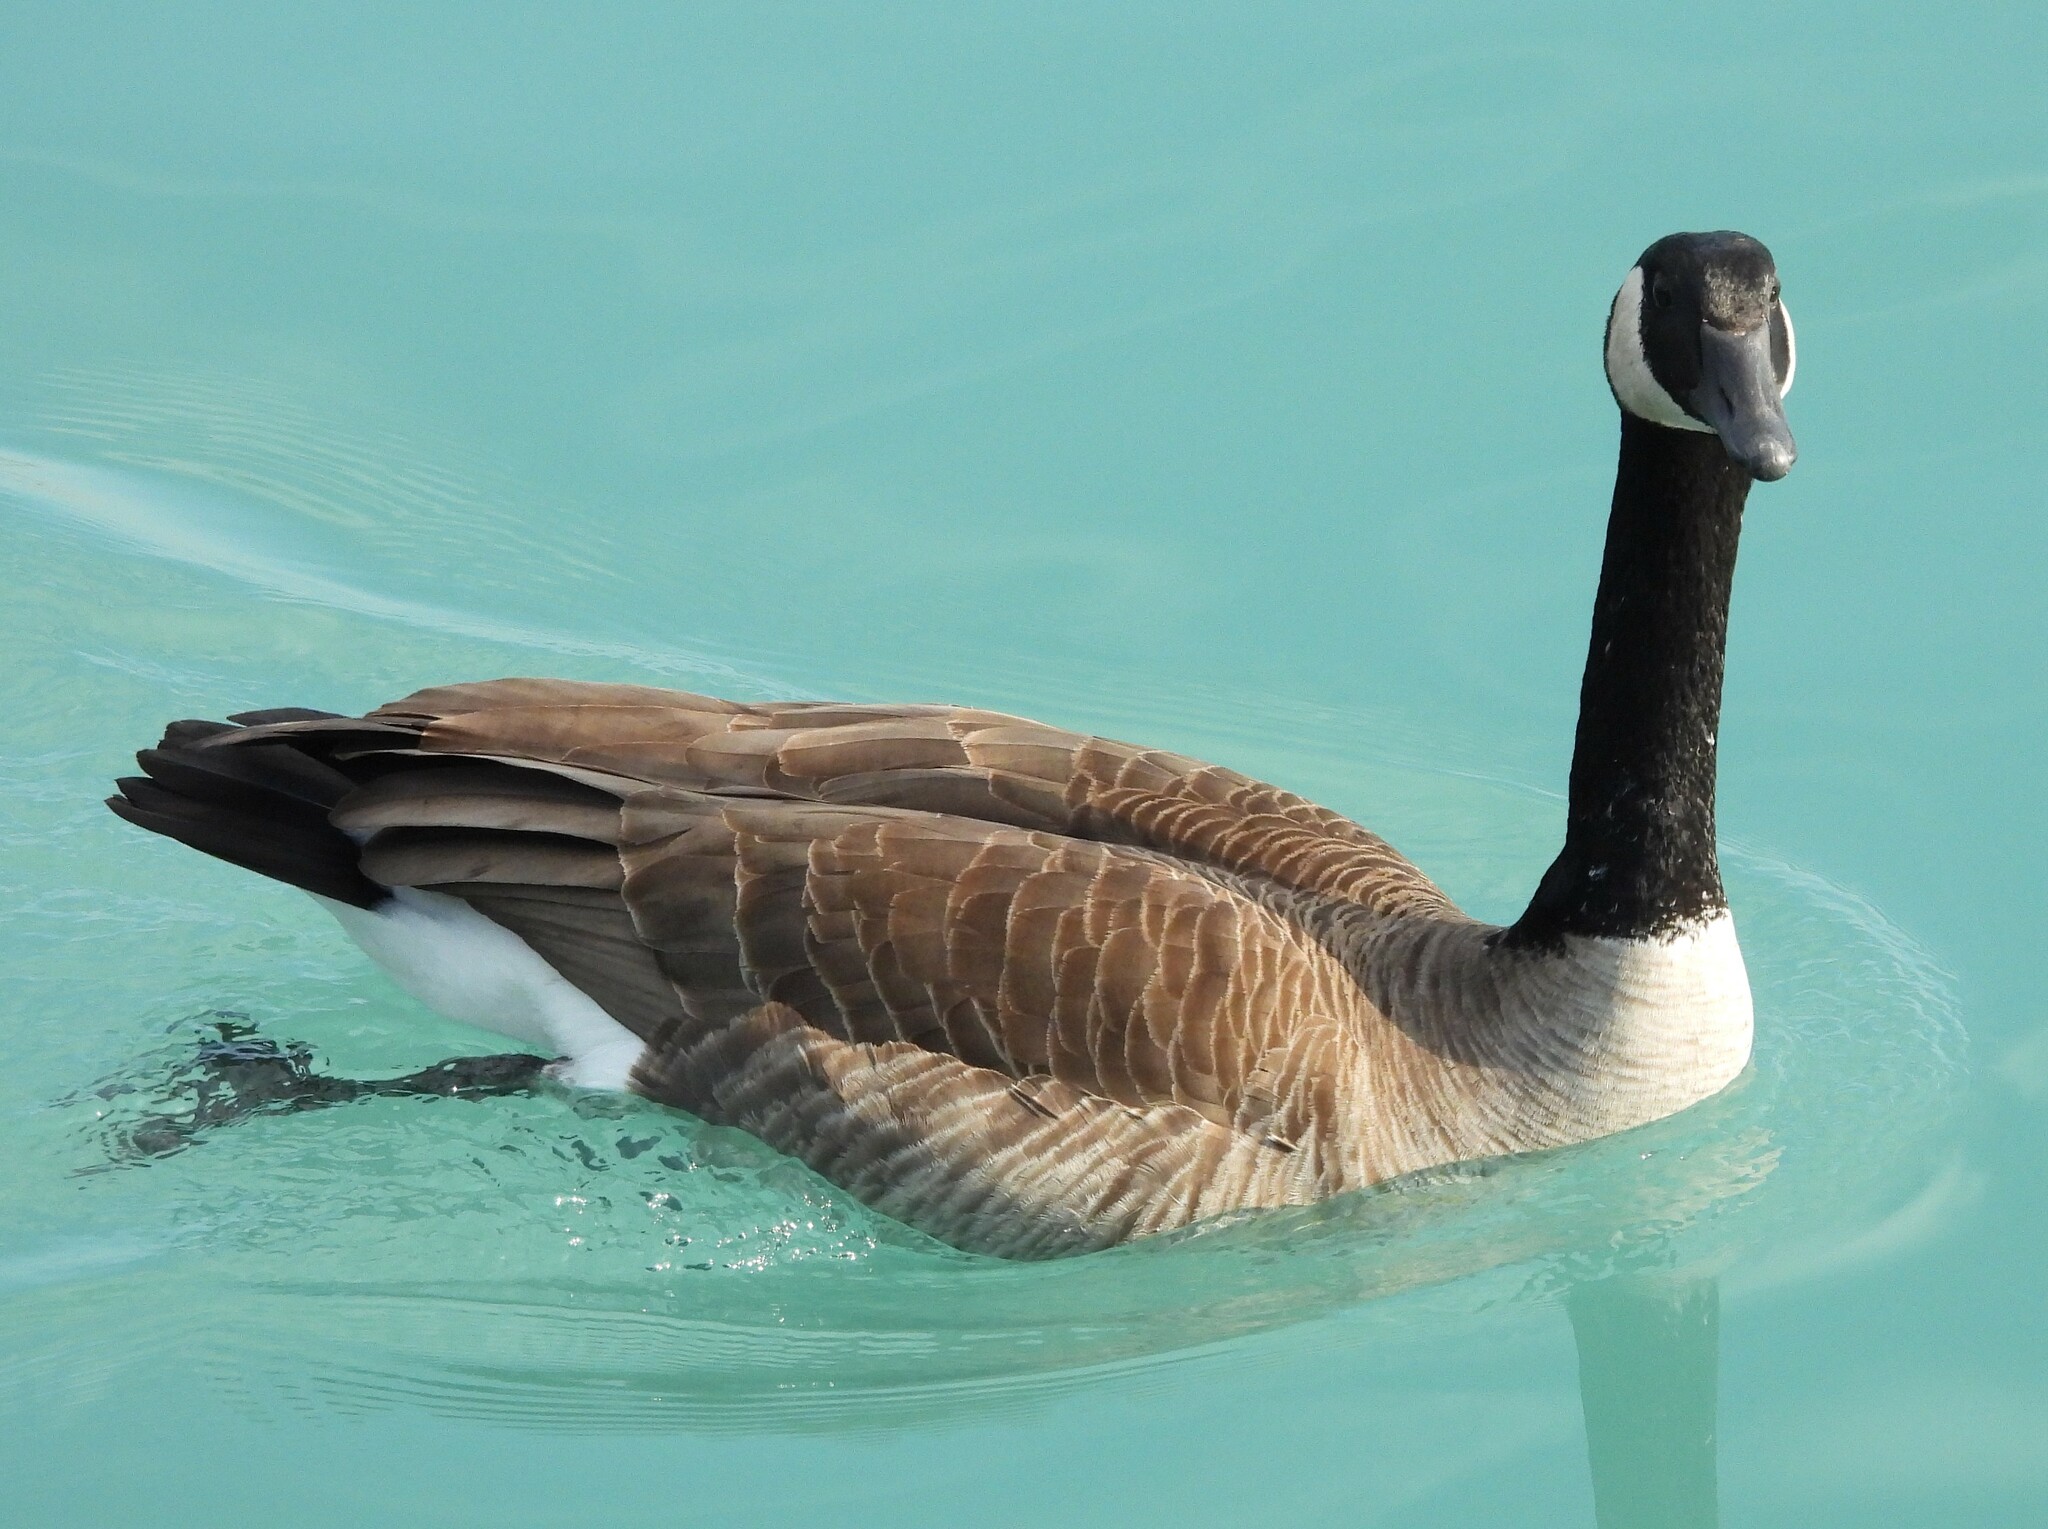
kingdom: Animalia
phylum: Chordata
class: Aves
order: Anseriformes
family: Anatidae
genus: Branta
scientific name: Branta canadensis
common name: Canada goose
